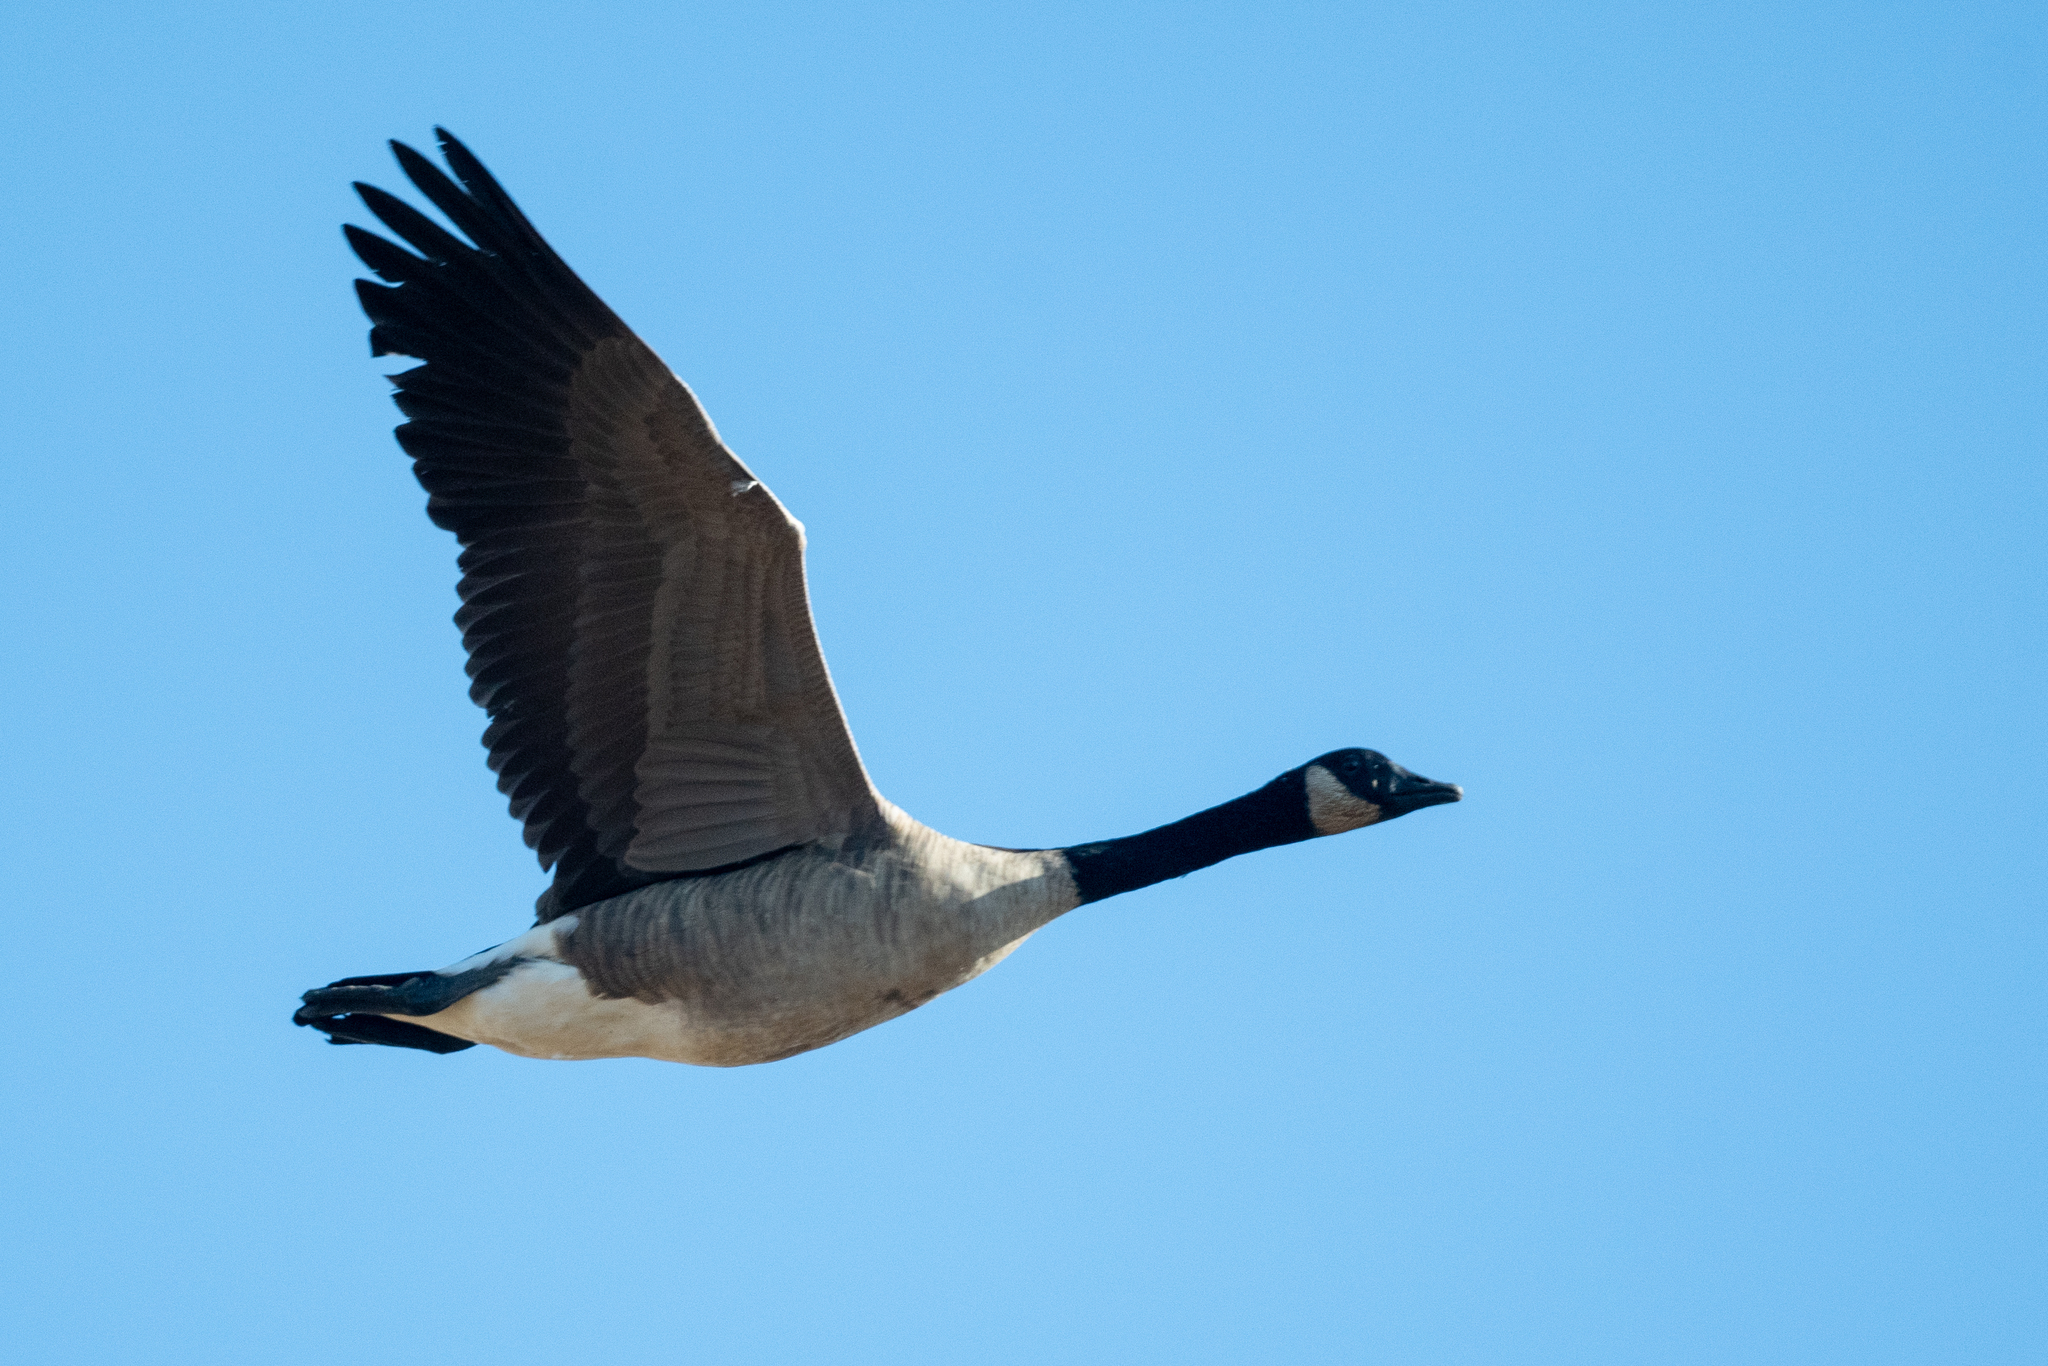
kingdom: Animalia
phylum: Chordata
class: Aves
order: Anseriformes
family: Anatidae
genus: Branta
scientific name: Branta canadensis
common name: Canada goose
